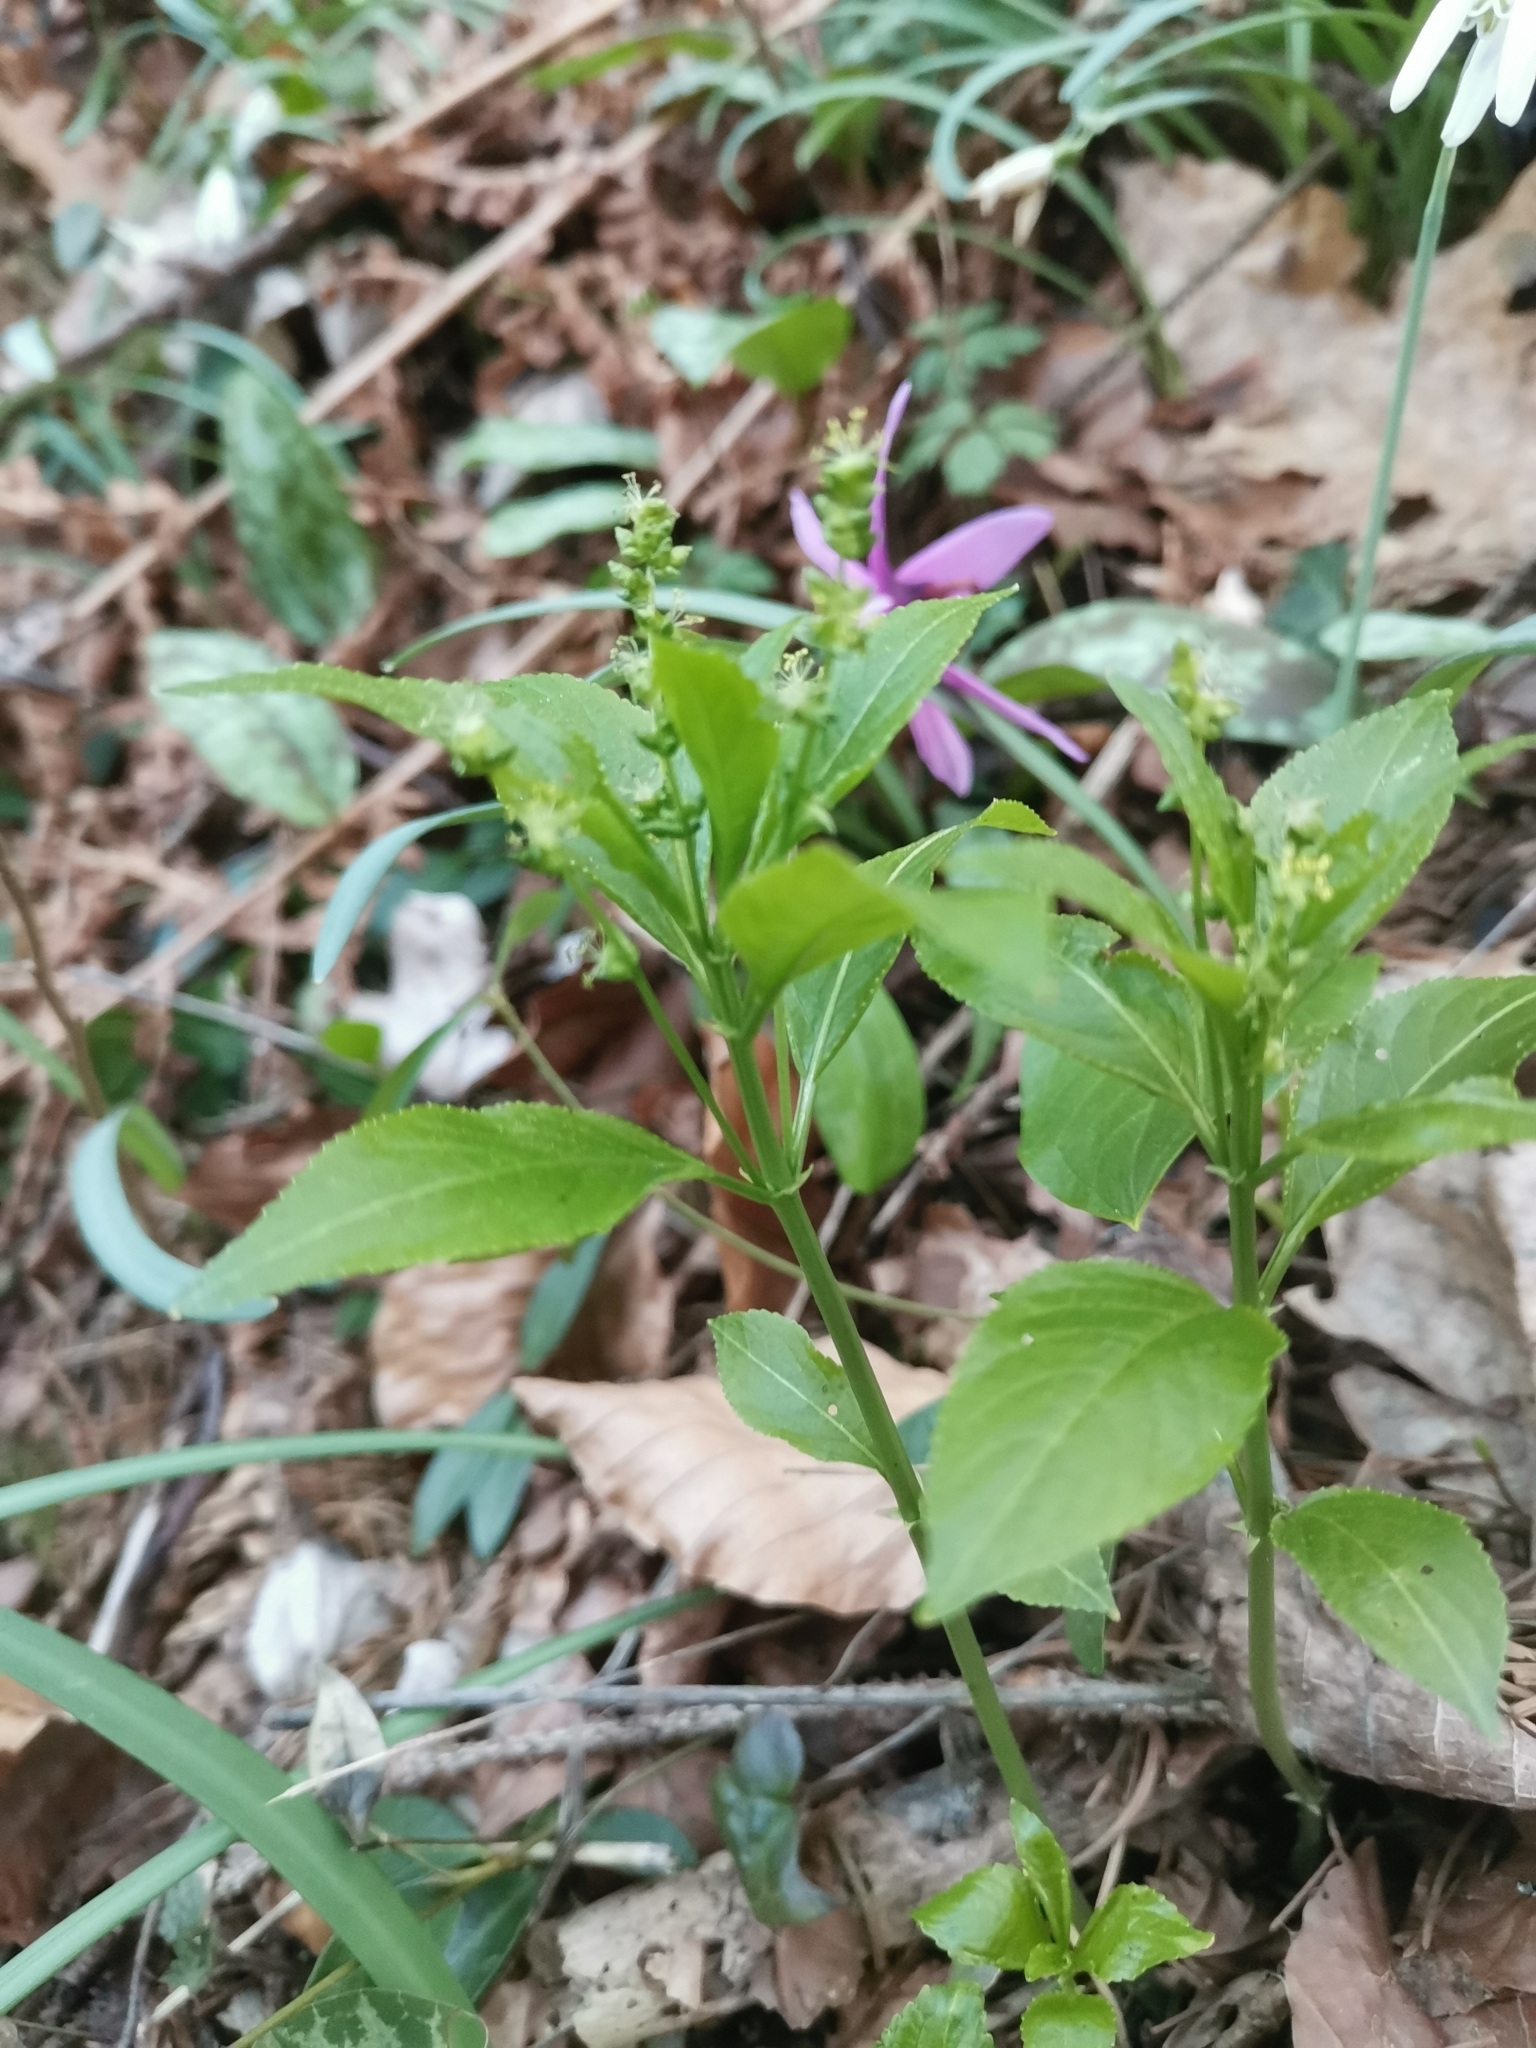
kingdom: Plantae
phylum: Tracheophyta
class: Magnoliopsida
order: Malpighiales
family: Euphorbiaceae
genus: Mercurialis
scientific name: Mercurialis perennis
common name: Dog mercury
